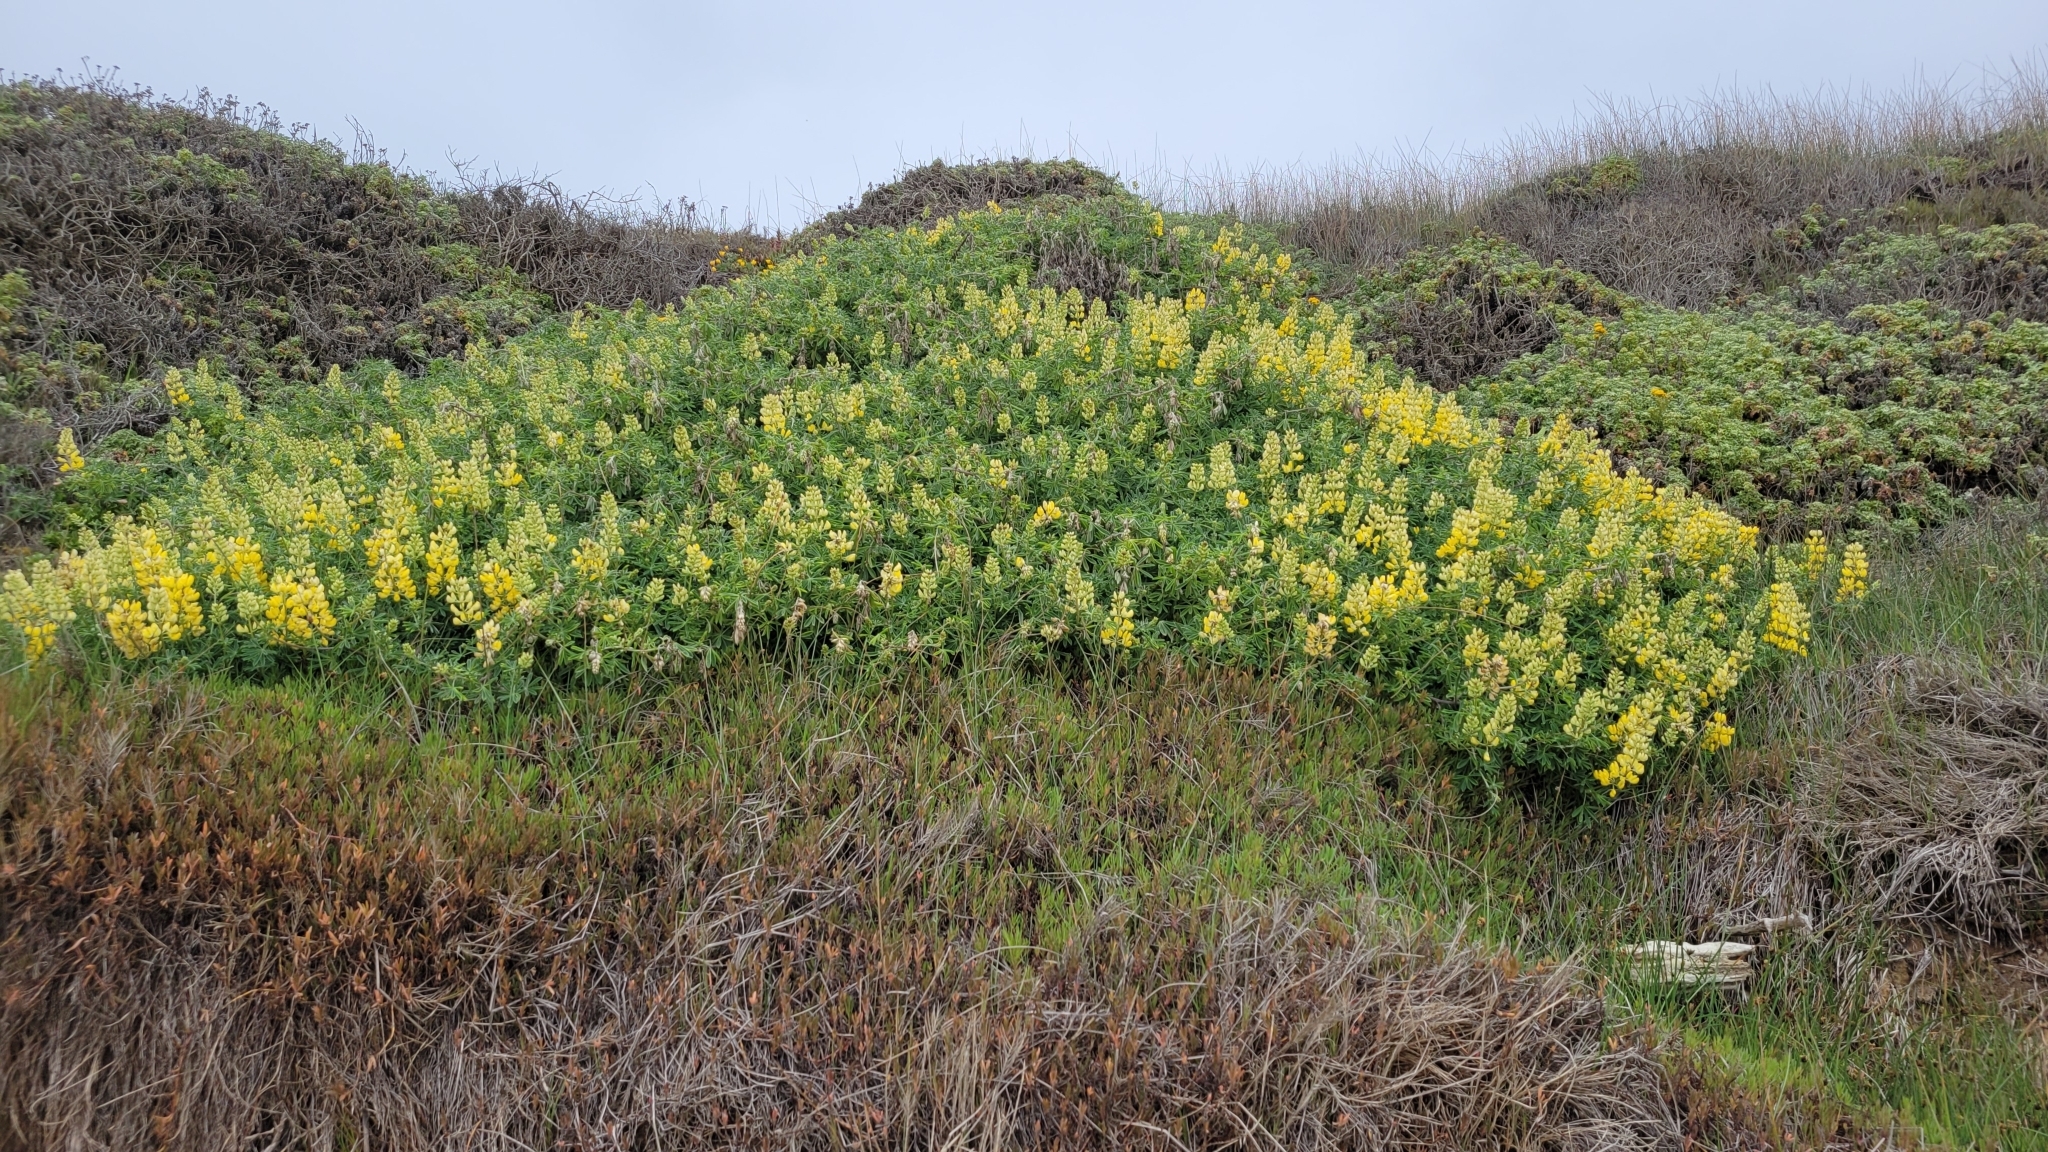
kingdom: Plantae
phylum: Tracheophyta
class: Magnoliopsida
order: Fabales
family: Fabaceae
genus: Lupinus
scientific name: Lupinus arboreus
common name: Yellow bush lupine
